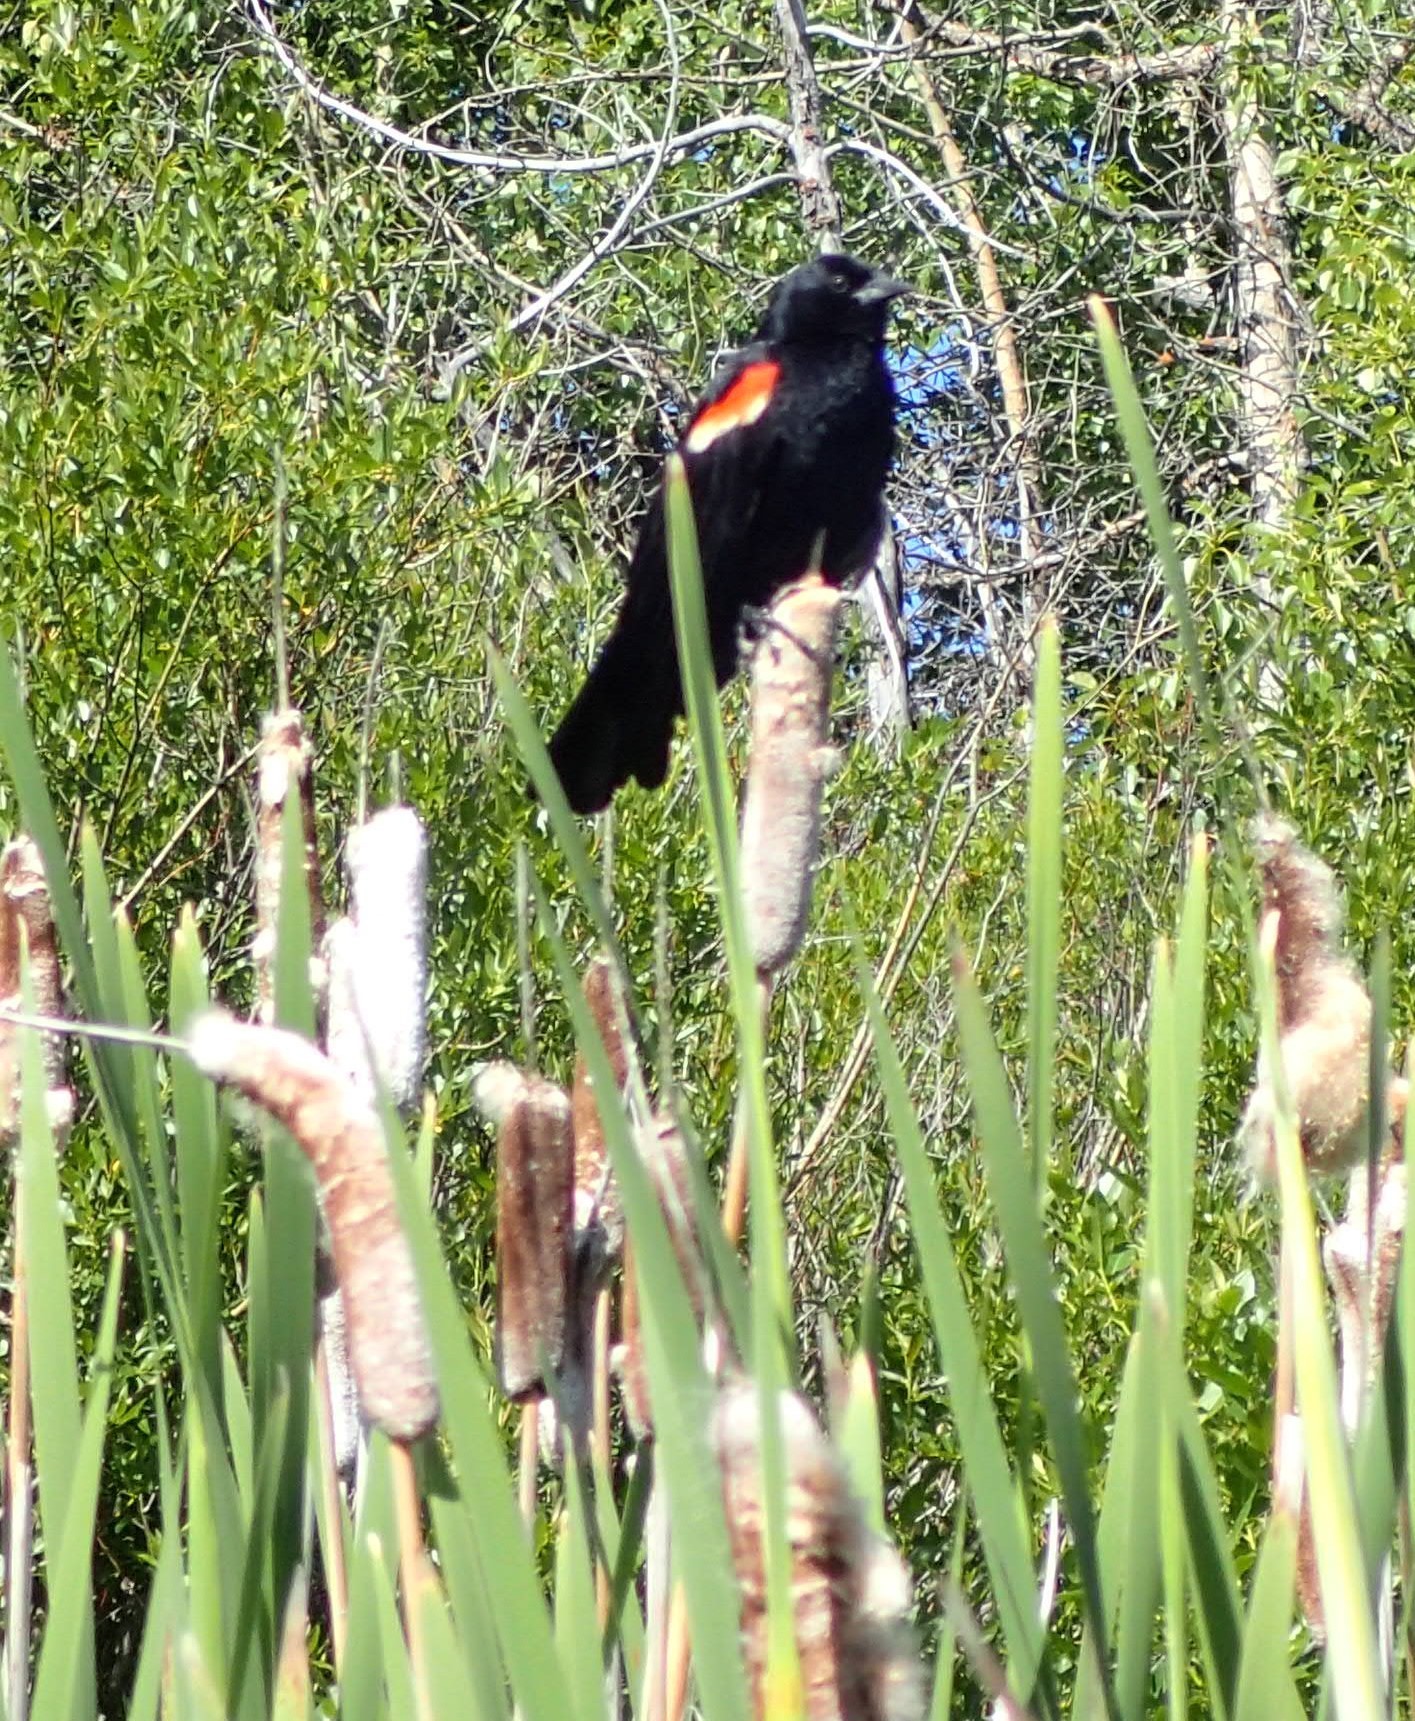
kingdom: Animalia
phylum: Chordata
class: Aves
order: Passeriformes
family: Icteridae
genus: Agelaius
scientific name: Agelaius phoeniceus
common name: Red-winged blackbird
